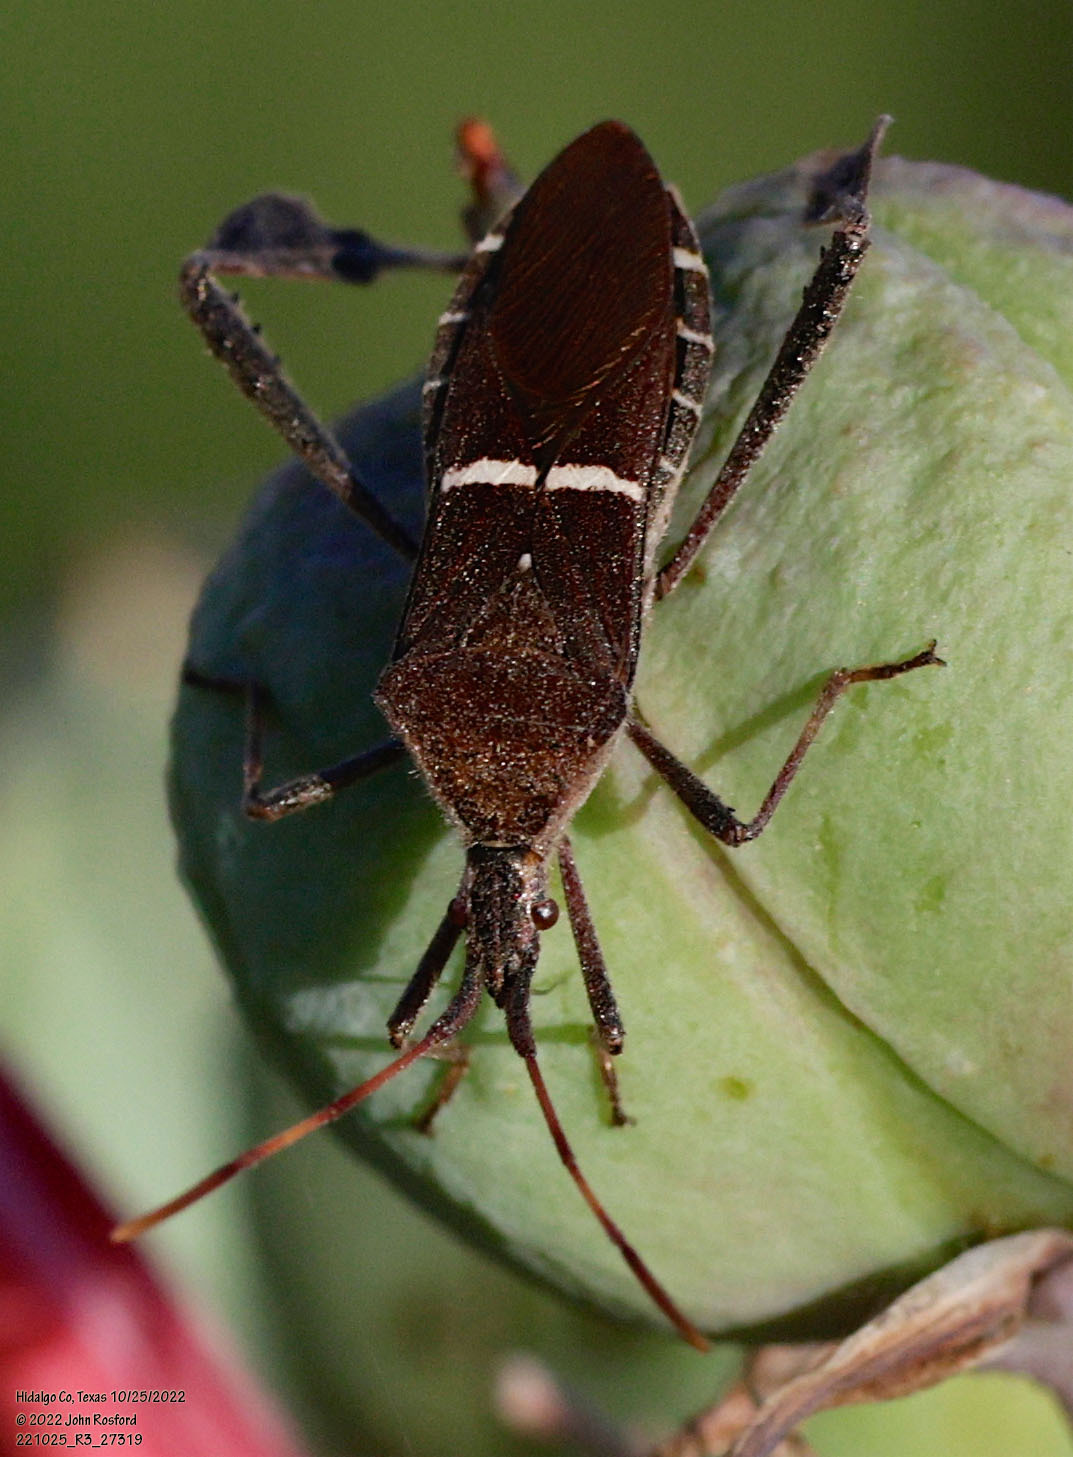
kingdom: Animalia
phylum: Arthropoda
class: Insecta
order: Hemiptera
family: Coreidae
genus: Leptoglossus
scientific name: Leptoglossus phyllopus
